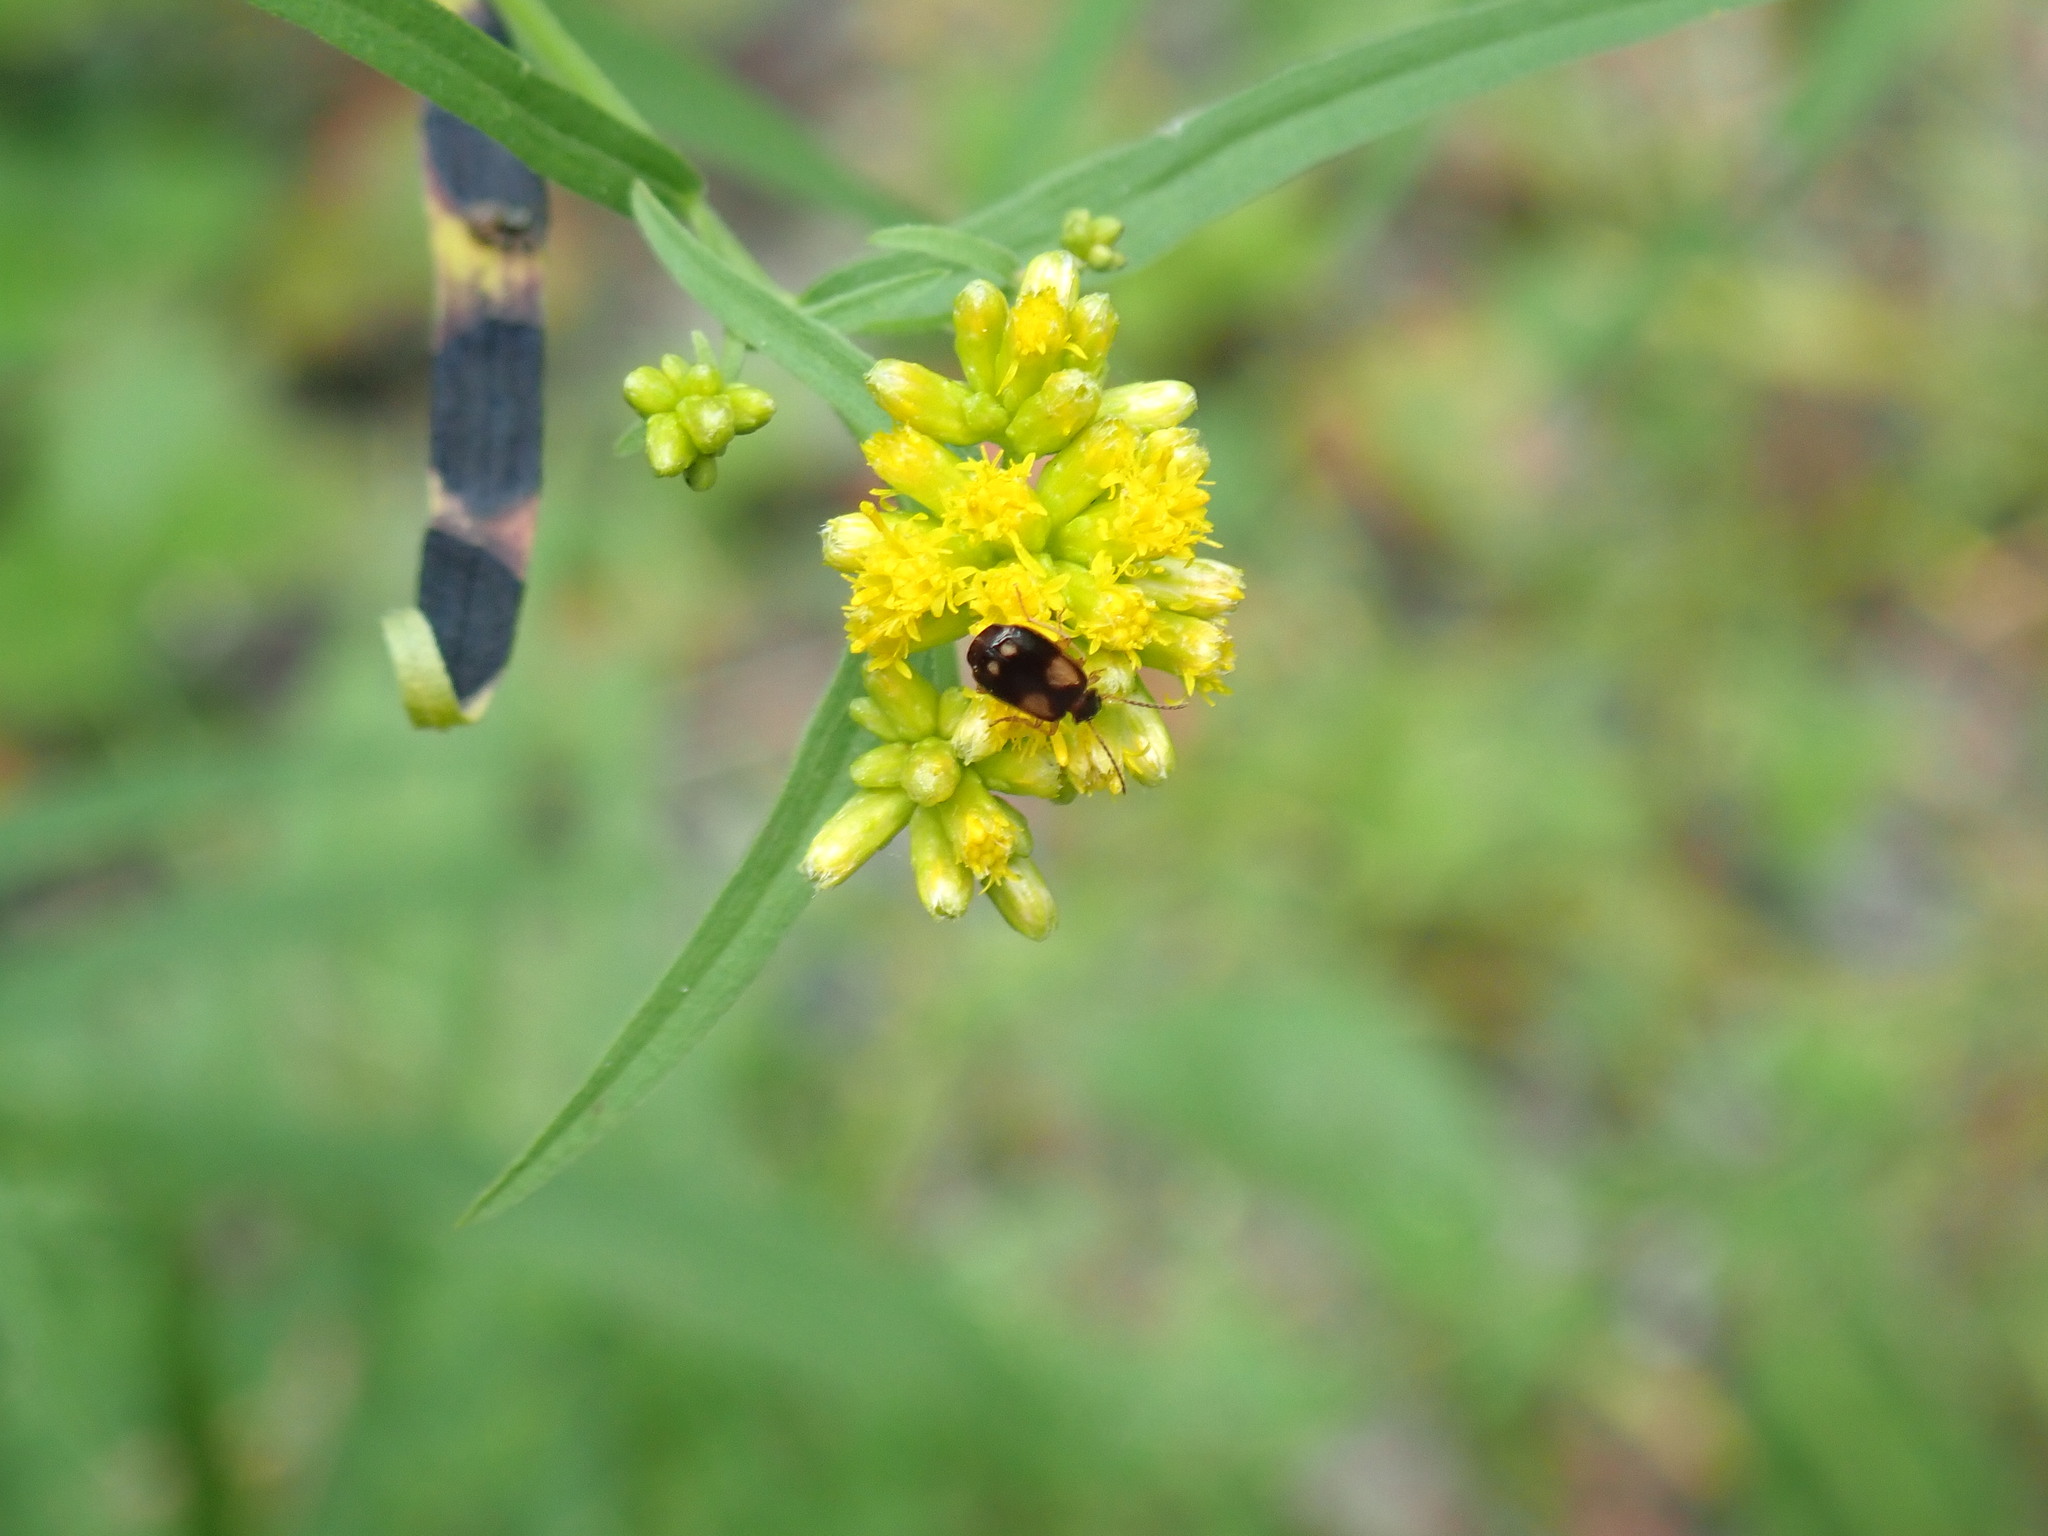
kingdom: Animalia
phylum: Arthropoda
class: Insecta
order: Coleoptera
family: Carabidae
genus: Lebia
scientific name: Lebia ornata
